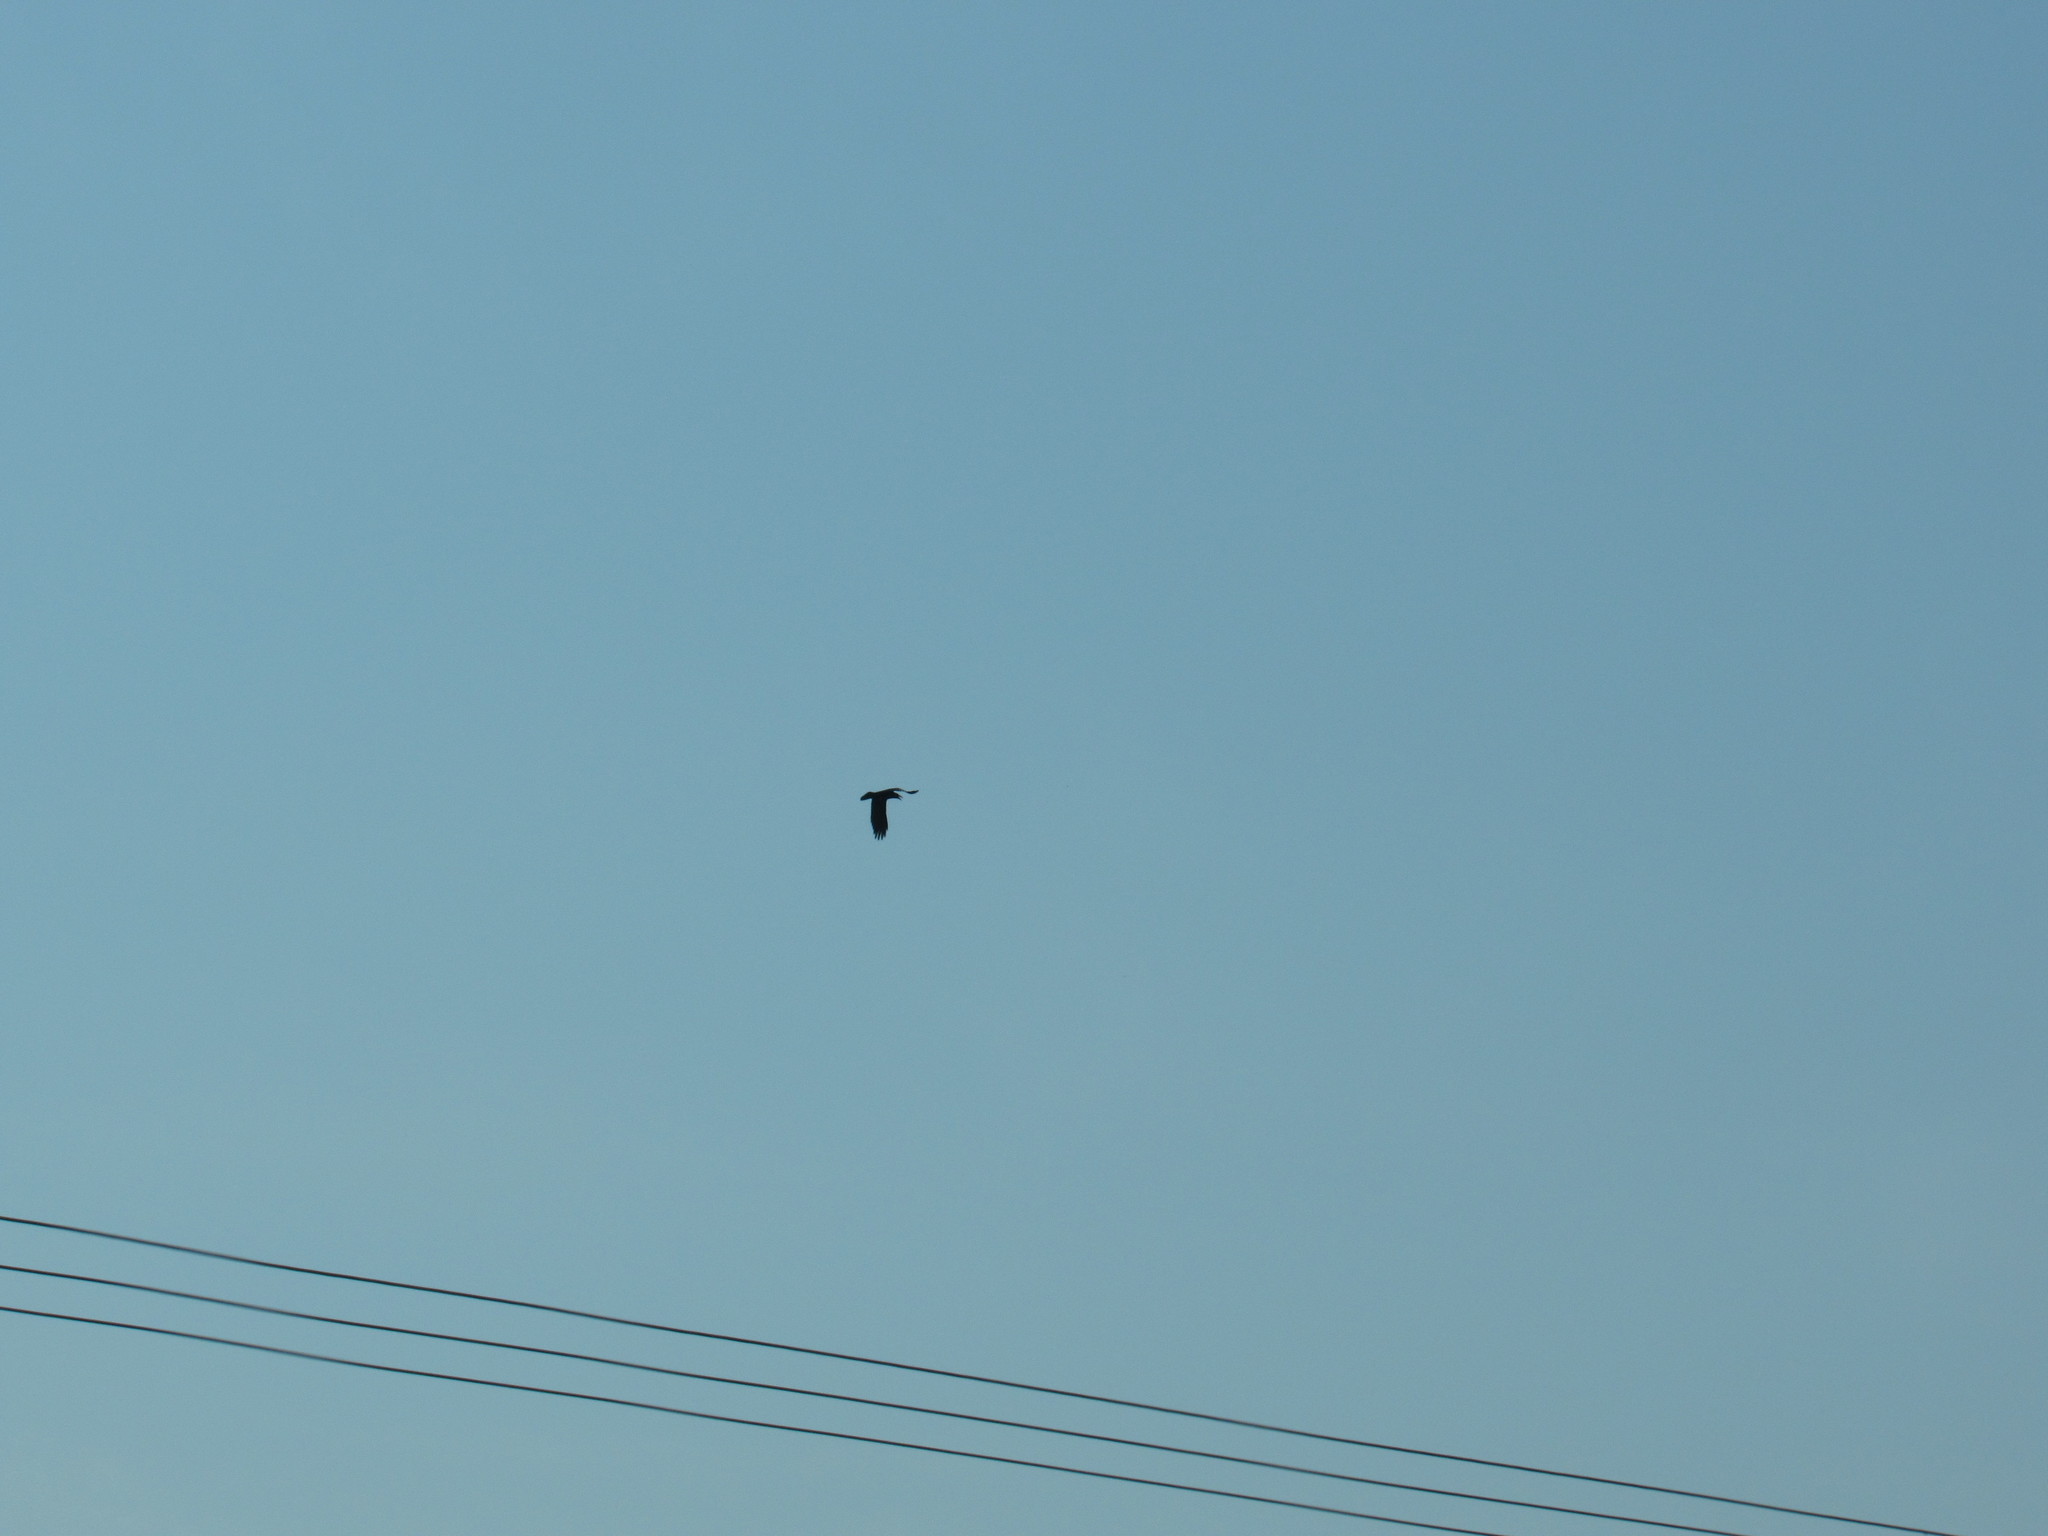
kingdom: Animalia
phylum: Chordata
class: Aves
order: Passeriformes
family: Corvidae
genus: Corvus
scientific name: Corvus corax
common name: Common raven
